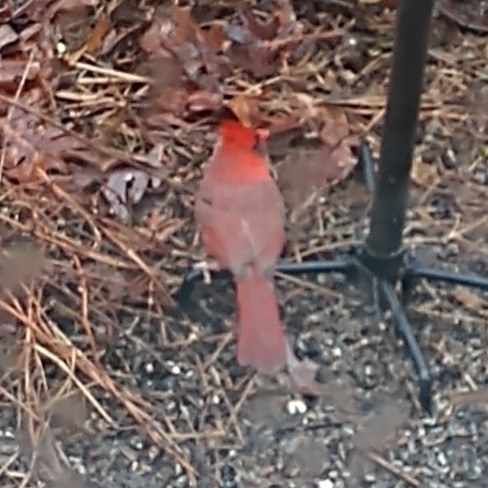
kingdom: Animalia
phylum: Chordata
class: Aves
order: Passeriformes
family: Cardinalidae
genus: Cardinalis
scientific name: Cardinalis cardinalis
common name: Northern cardinal
